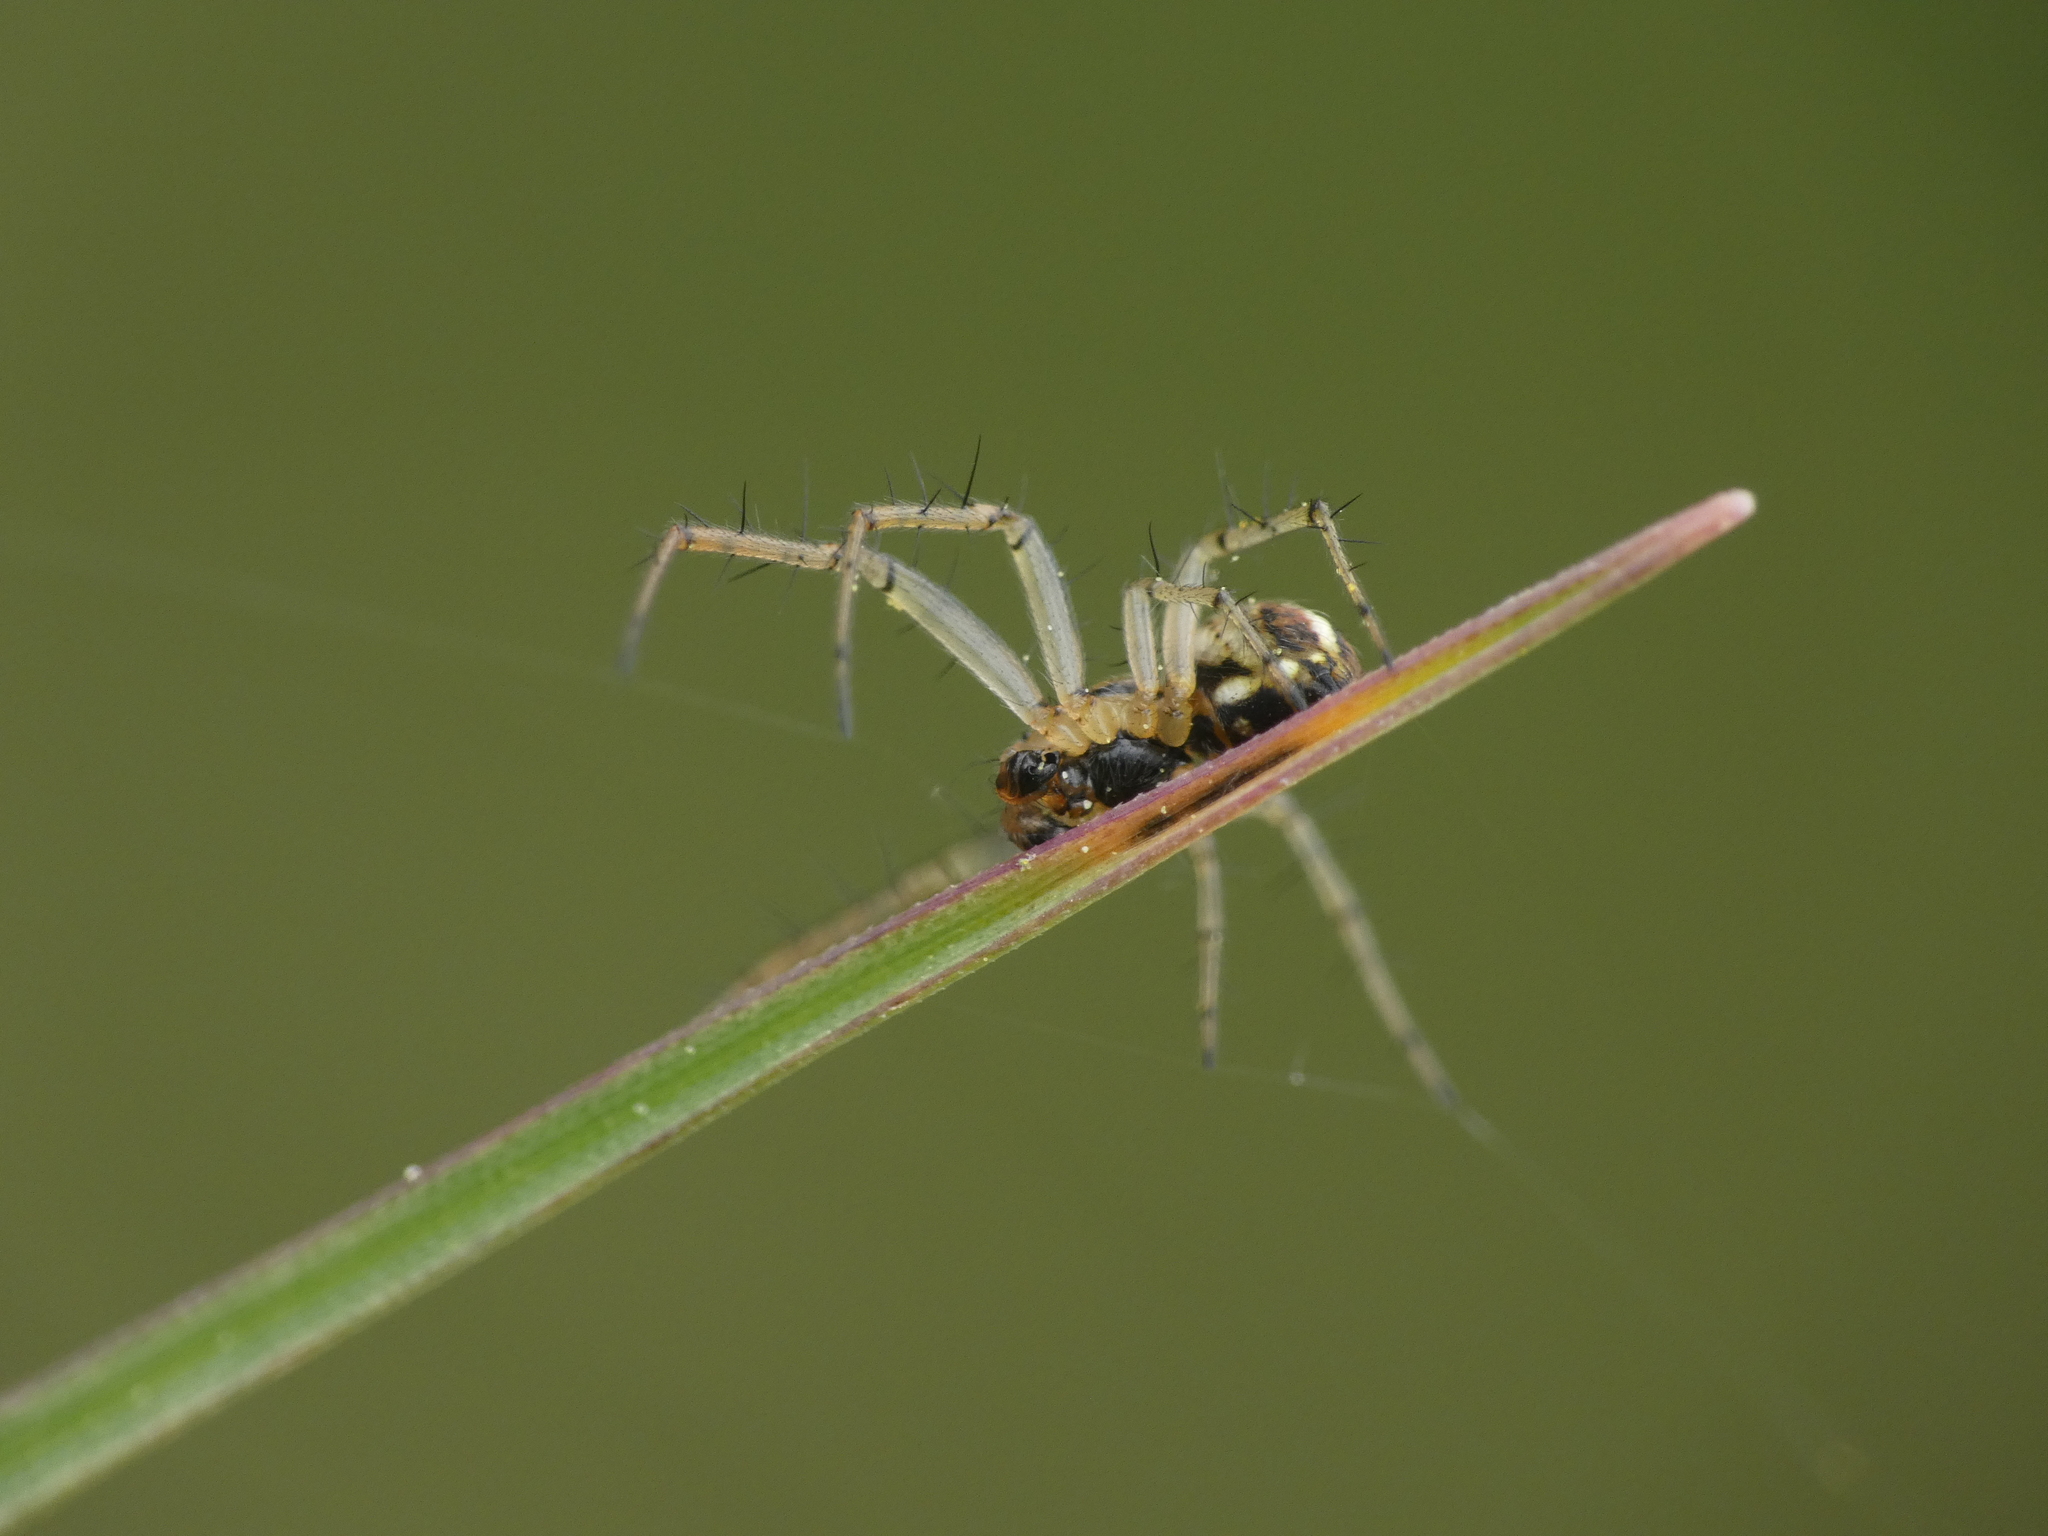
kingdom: Animalia
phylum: Arthropoda
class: Arachnida
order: Araneae
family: Araneidae
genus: Mangora
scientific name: Mangora acalypha
